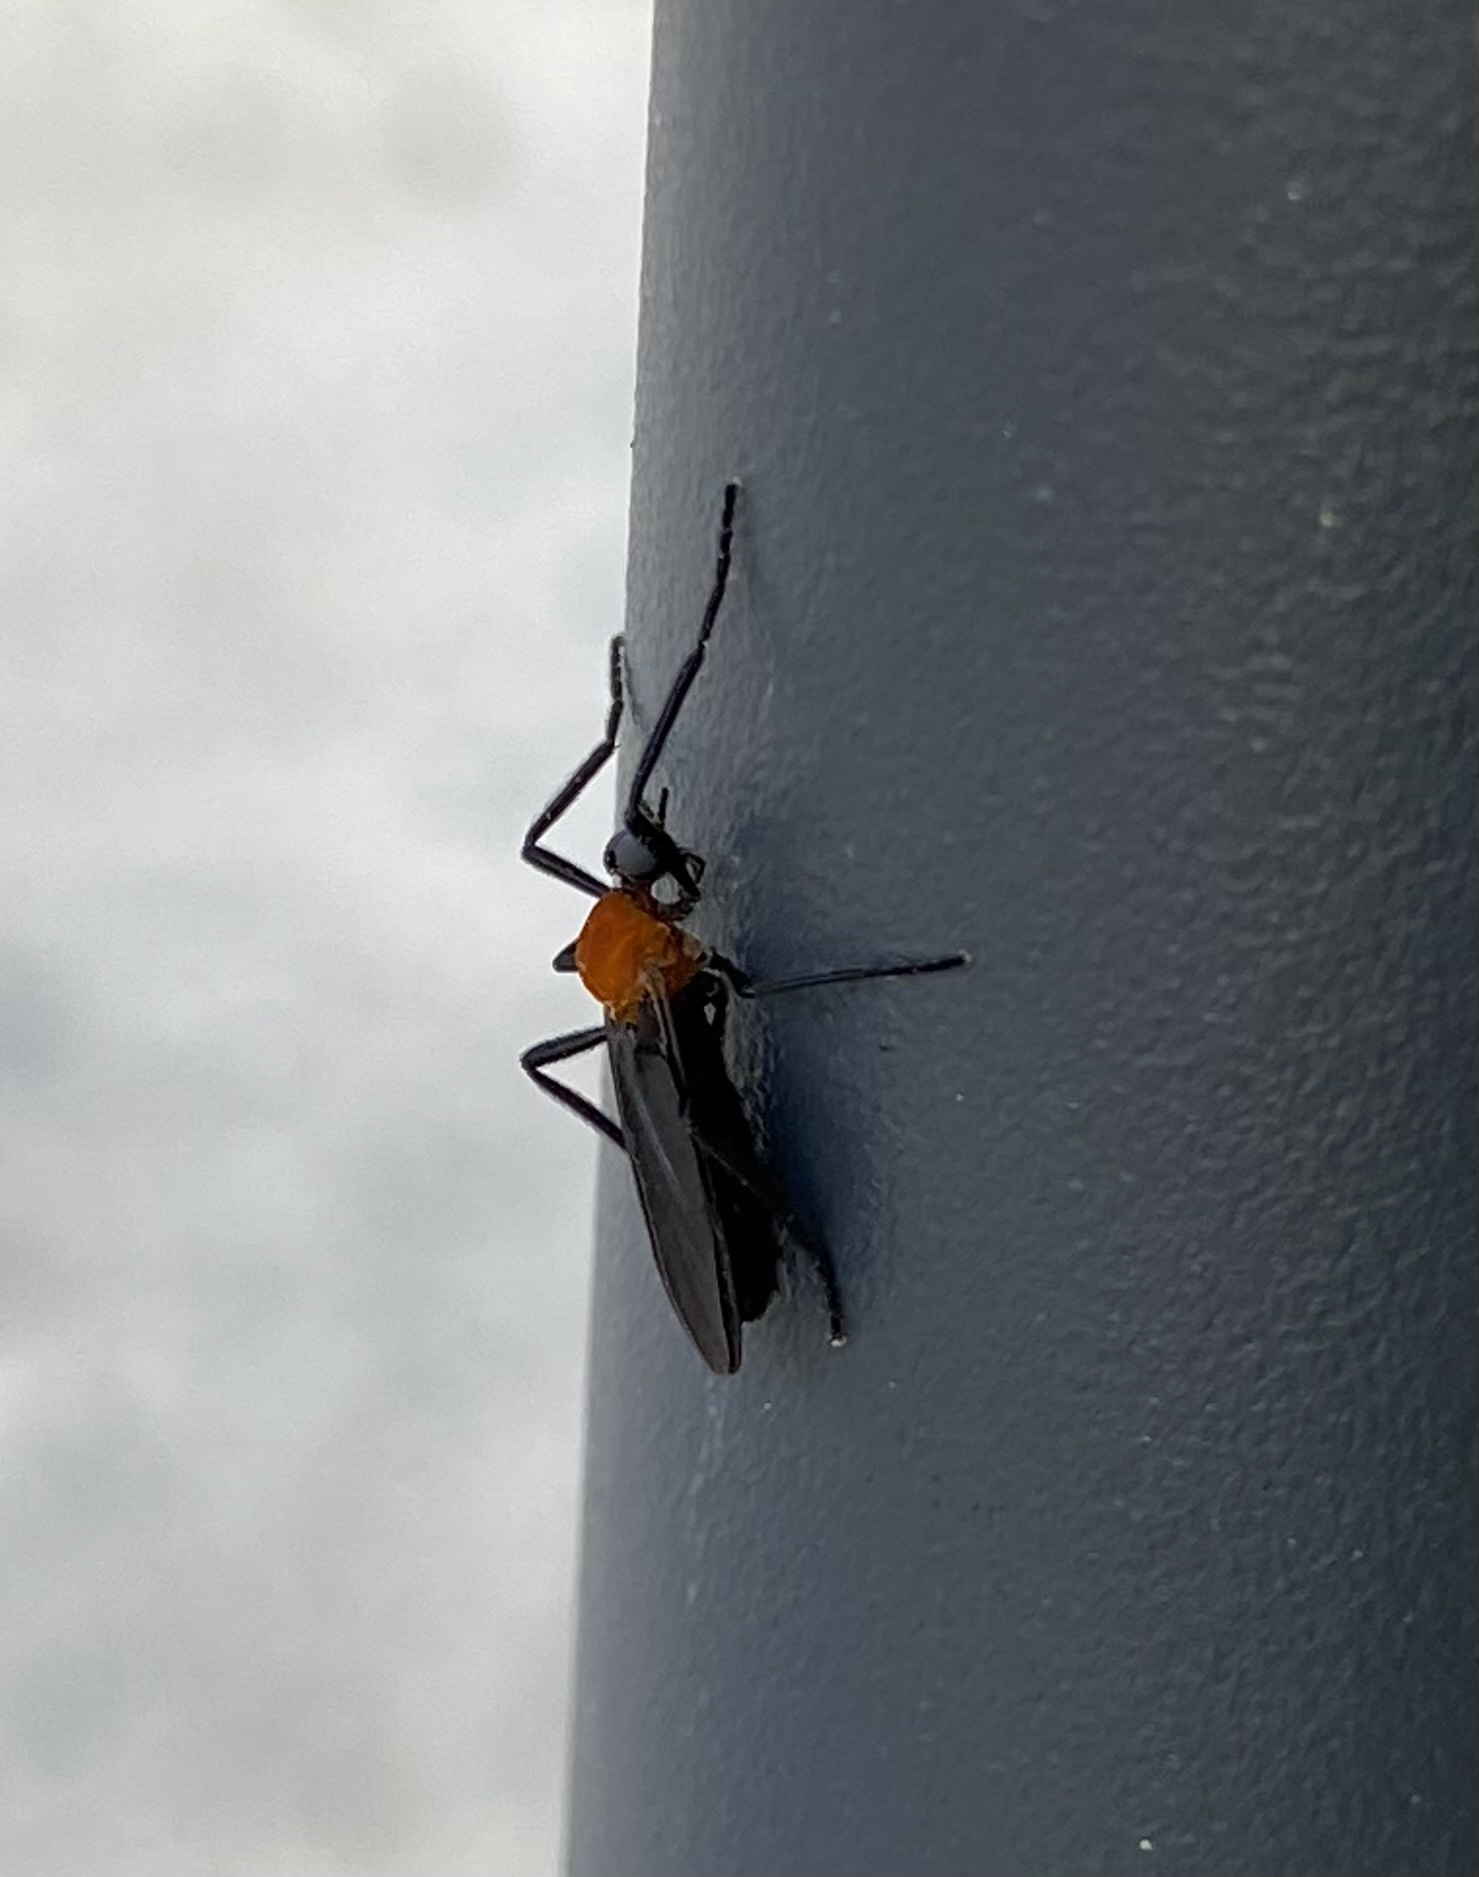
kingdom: Animalia
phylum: Arthropoda
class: Insecta
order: Diptera
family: Bibionidae
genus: Plecia
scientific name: Plecia americana
